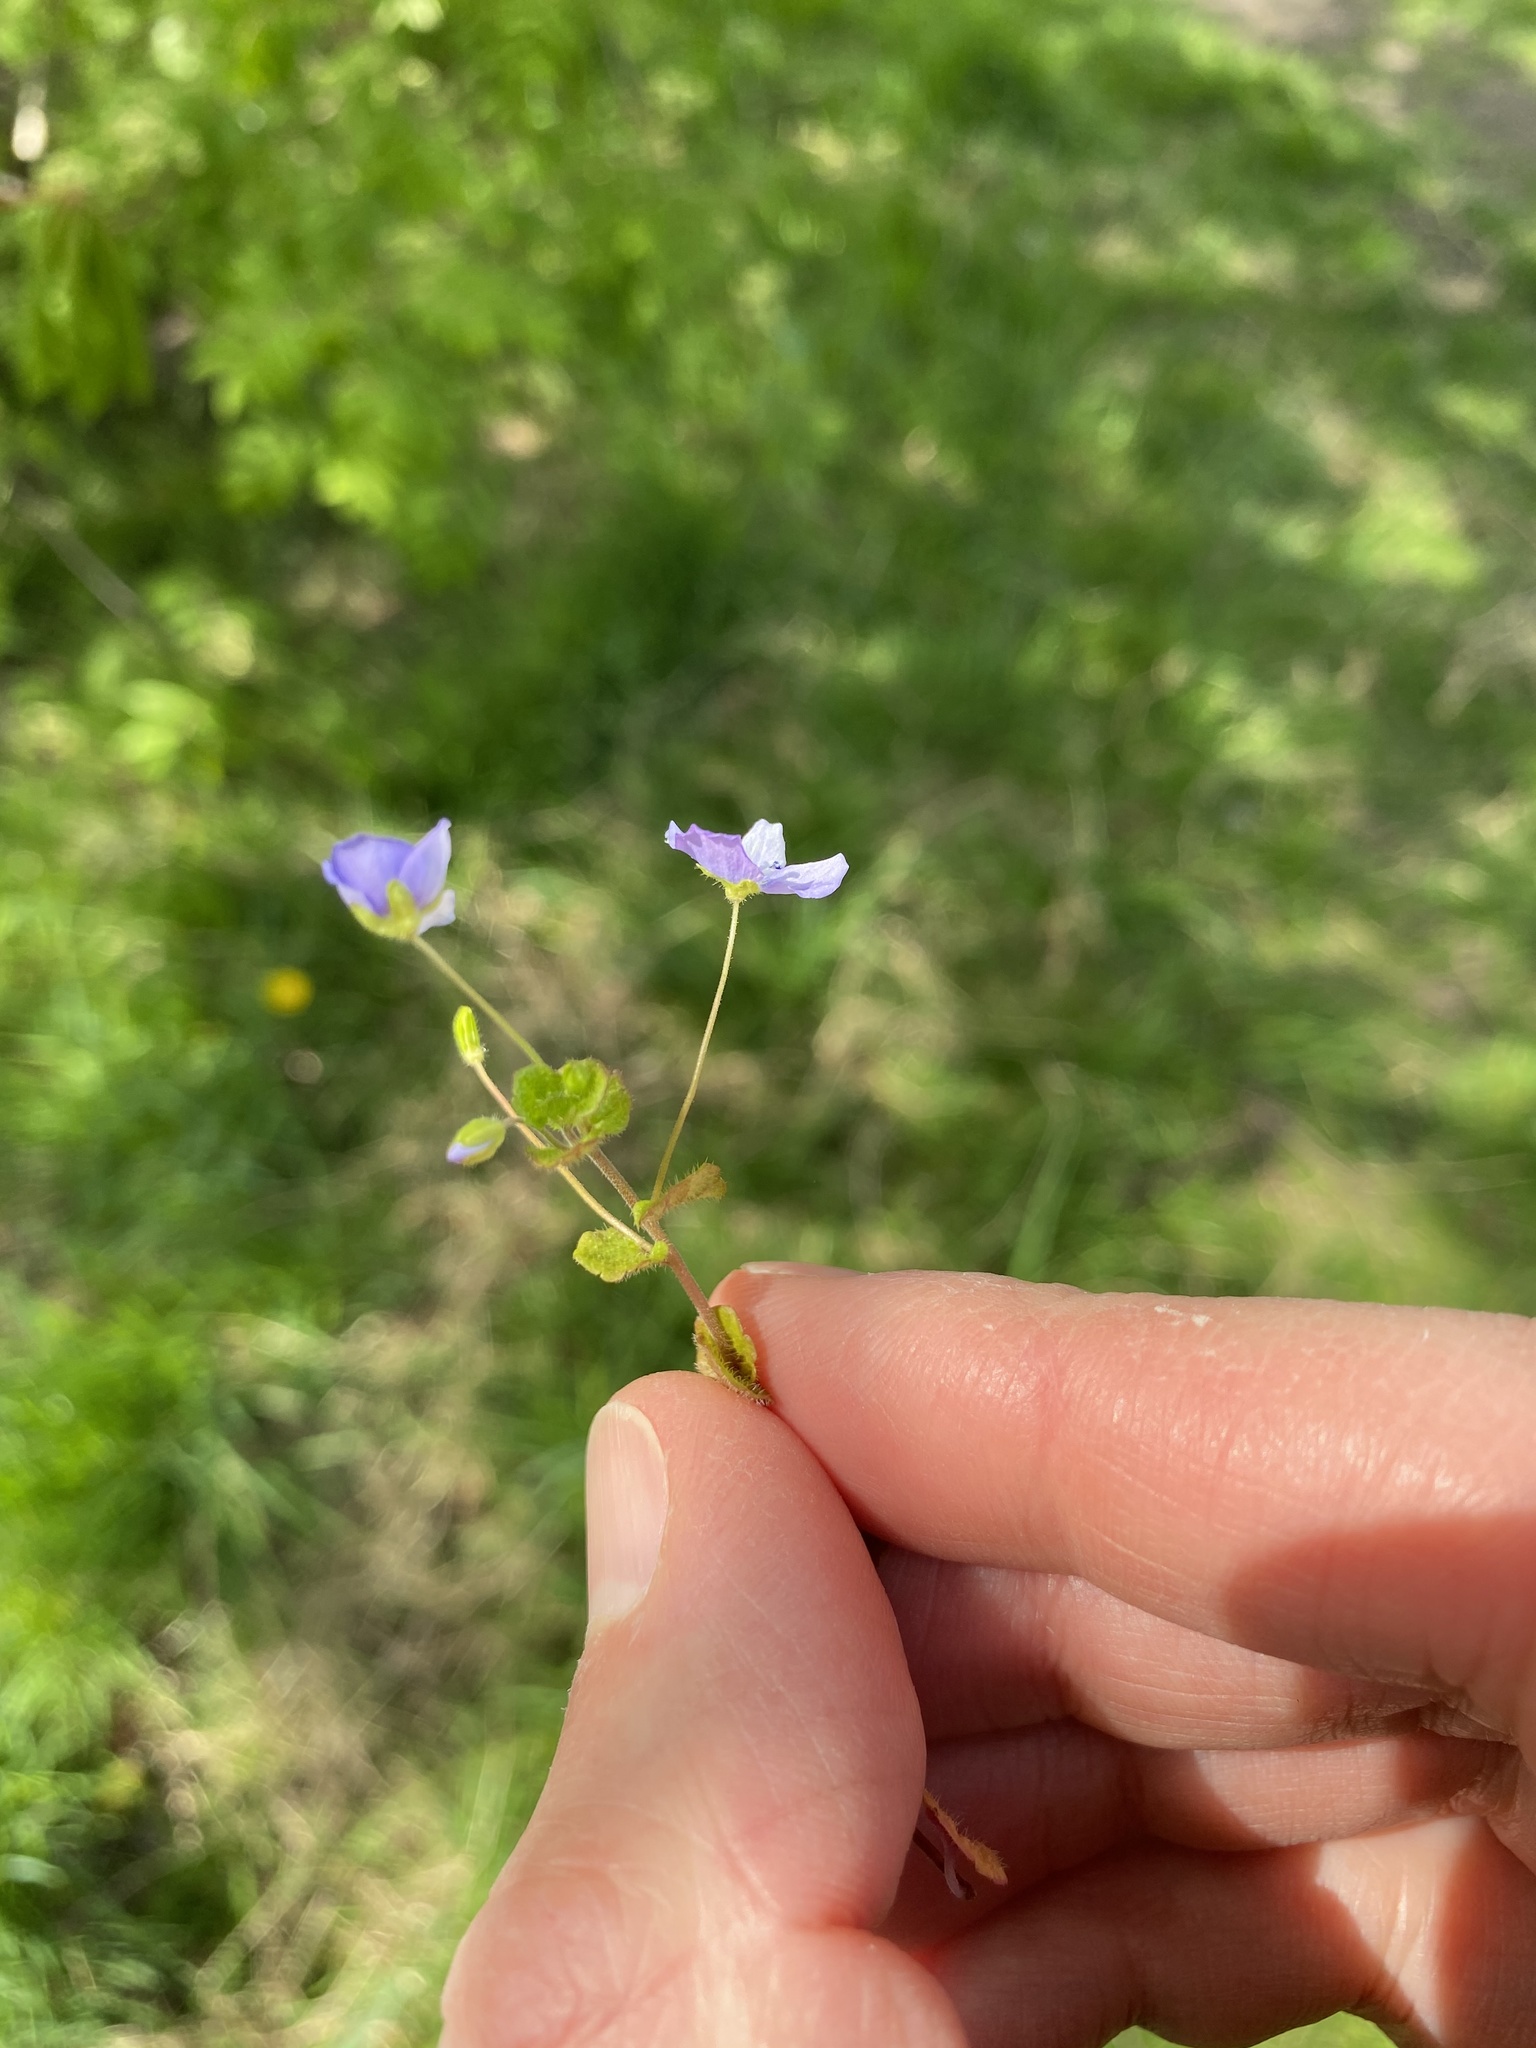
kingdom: Plantae
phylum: Tracheophyta
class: Magnoliopsida
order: Lamiales
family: Plantaginaceae
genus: Veronica
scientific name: Veronica filiformis
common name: Slender speedwell
